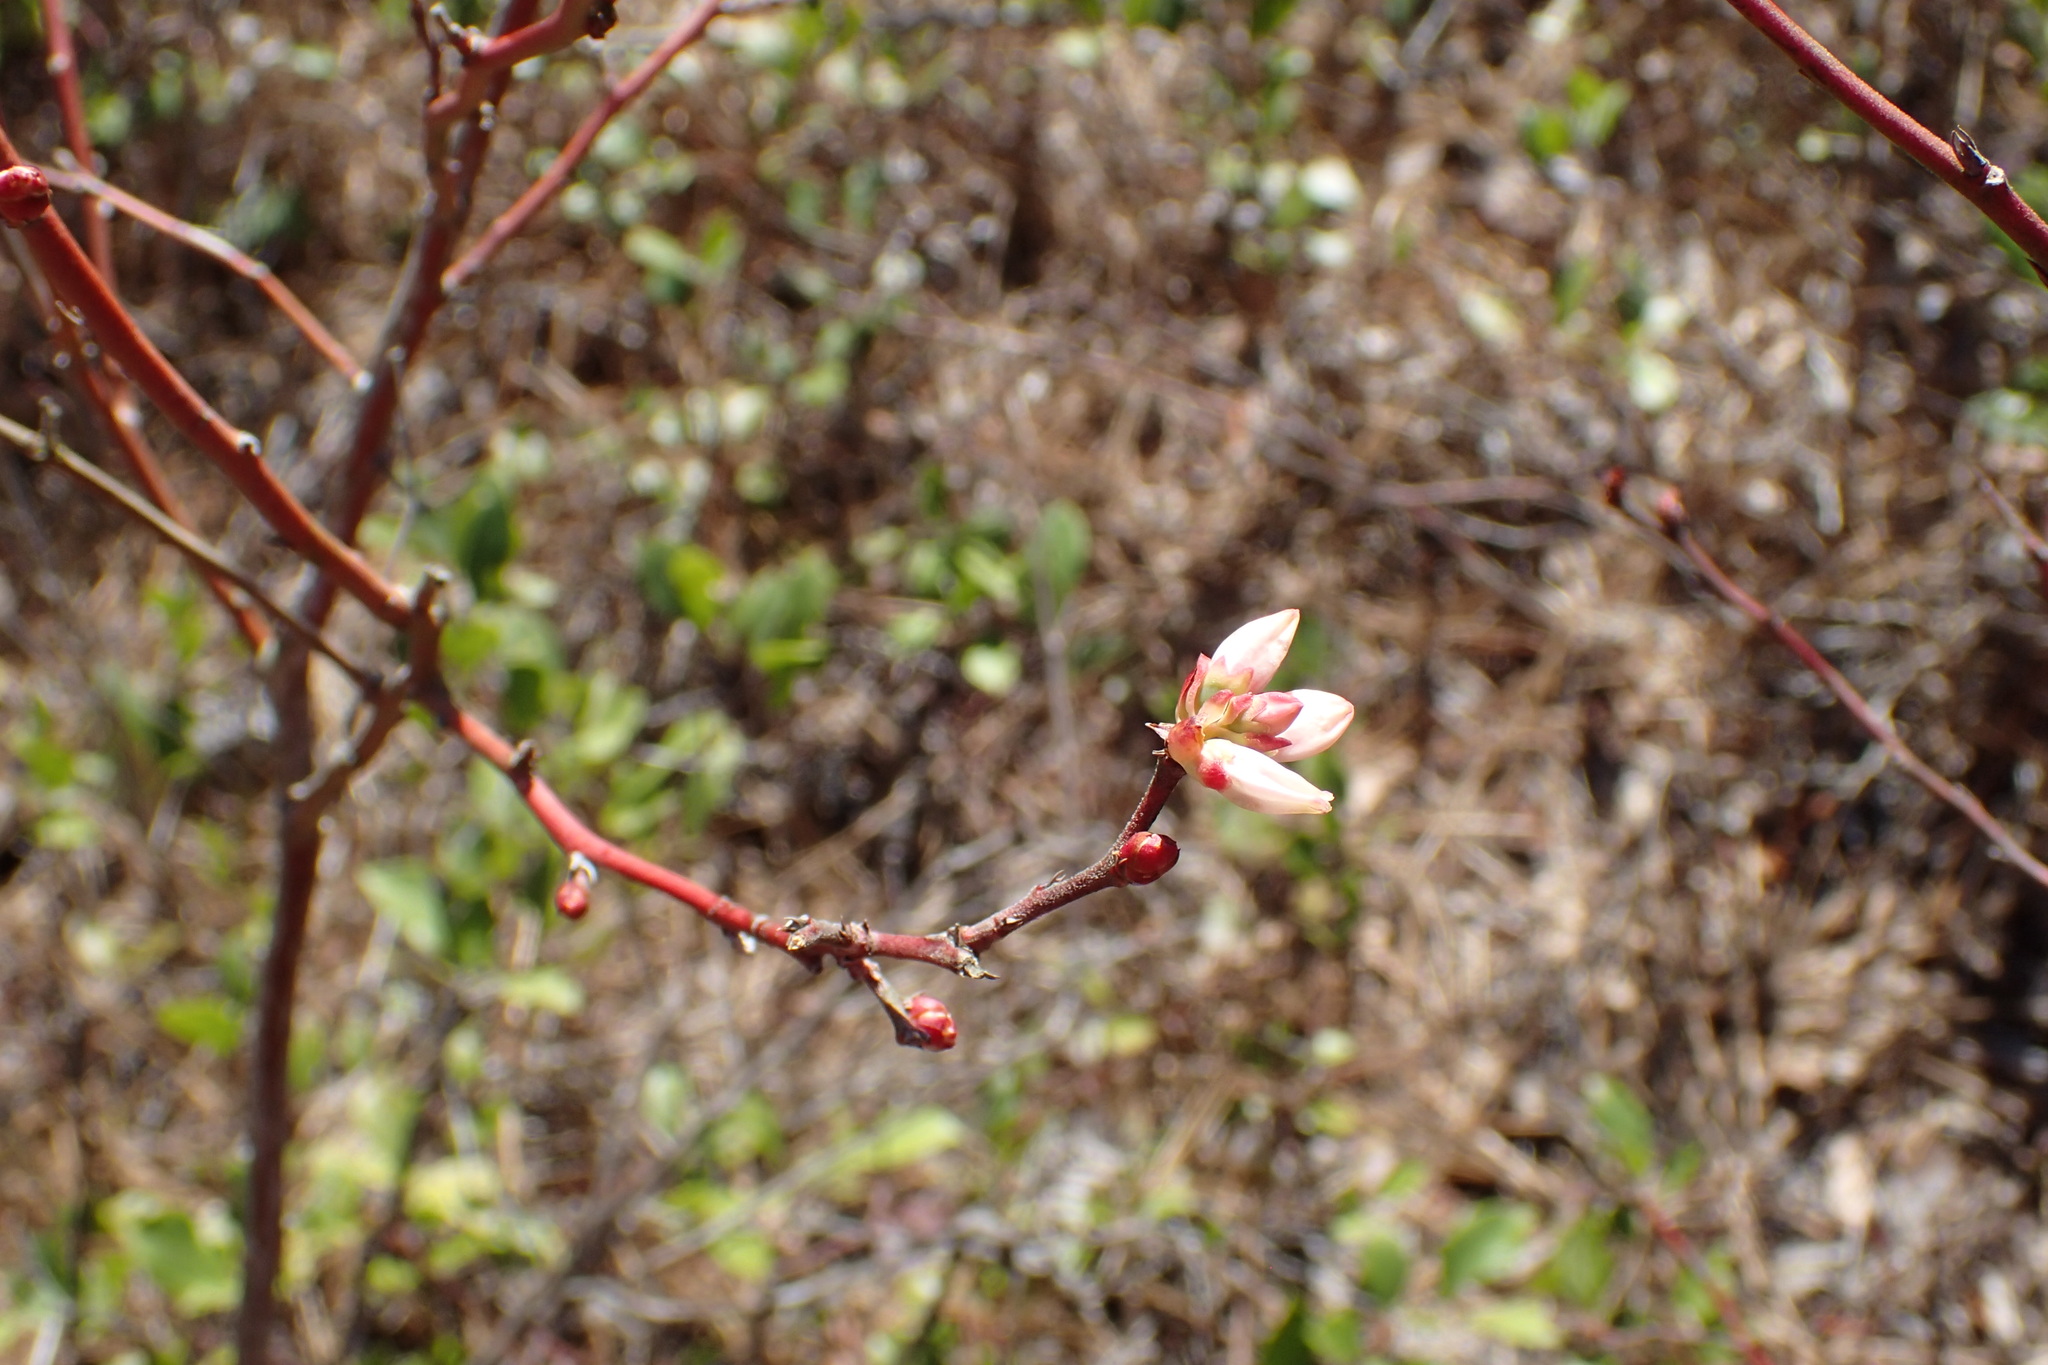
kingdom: Plantae
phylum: Tracheophyta
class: Magnoliopsida
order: Ericales
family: Ericaceae
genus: Vaccinium
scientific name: Vaccinium corymbosum
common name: Blueberry
